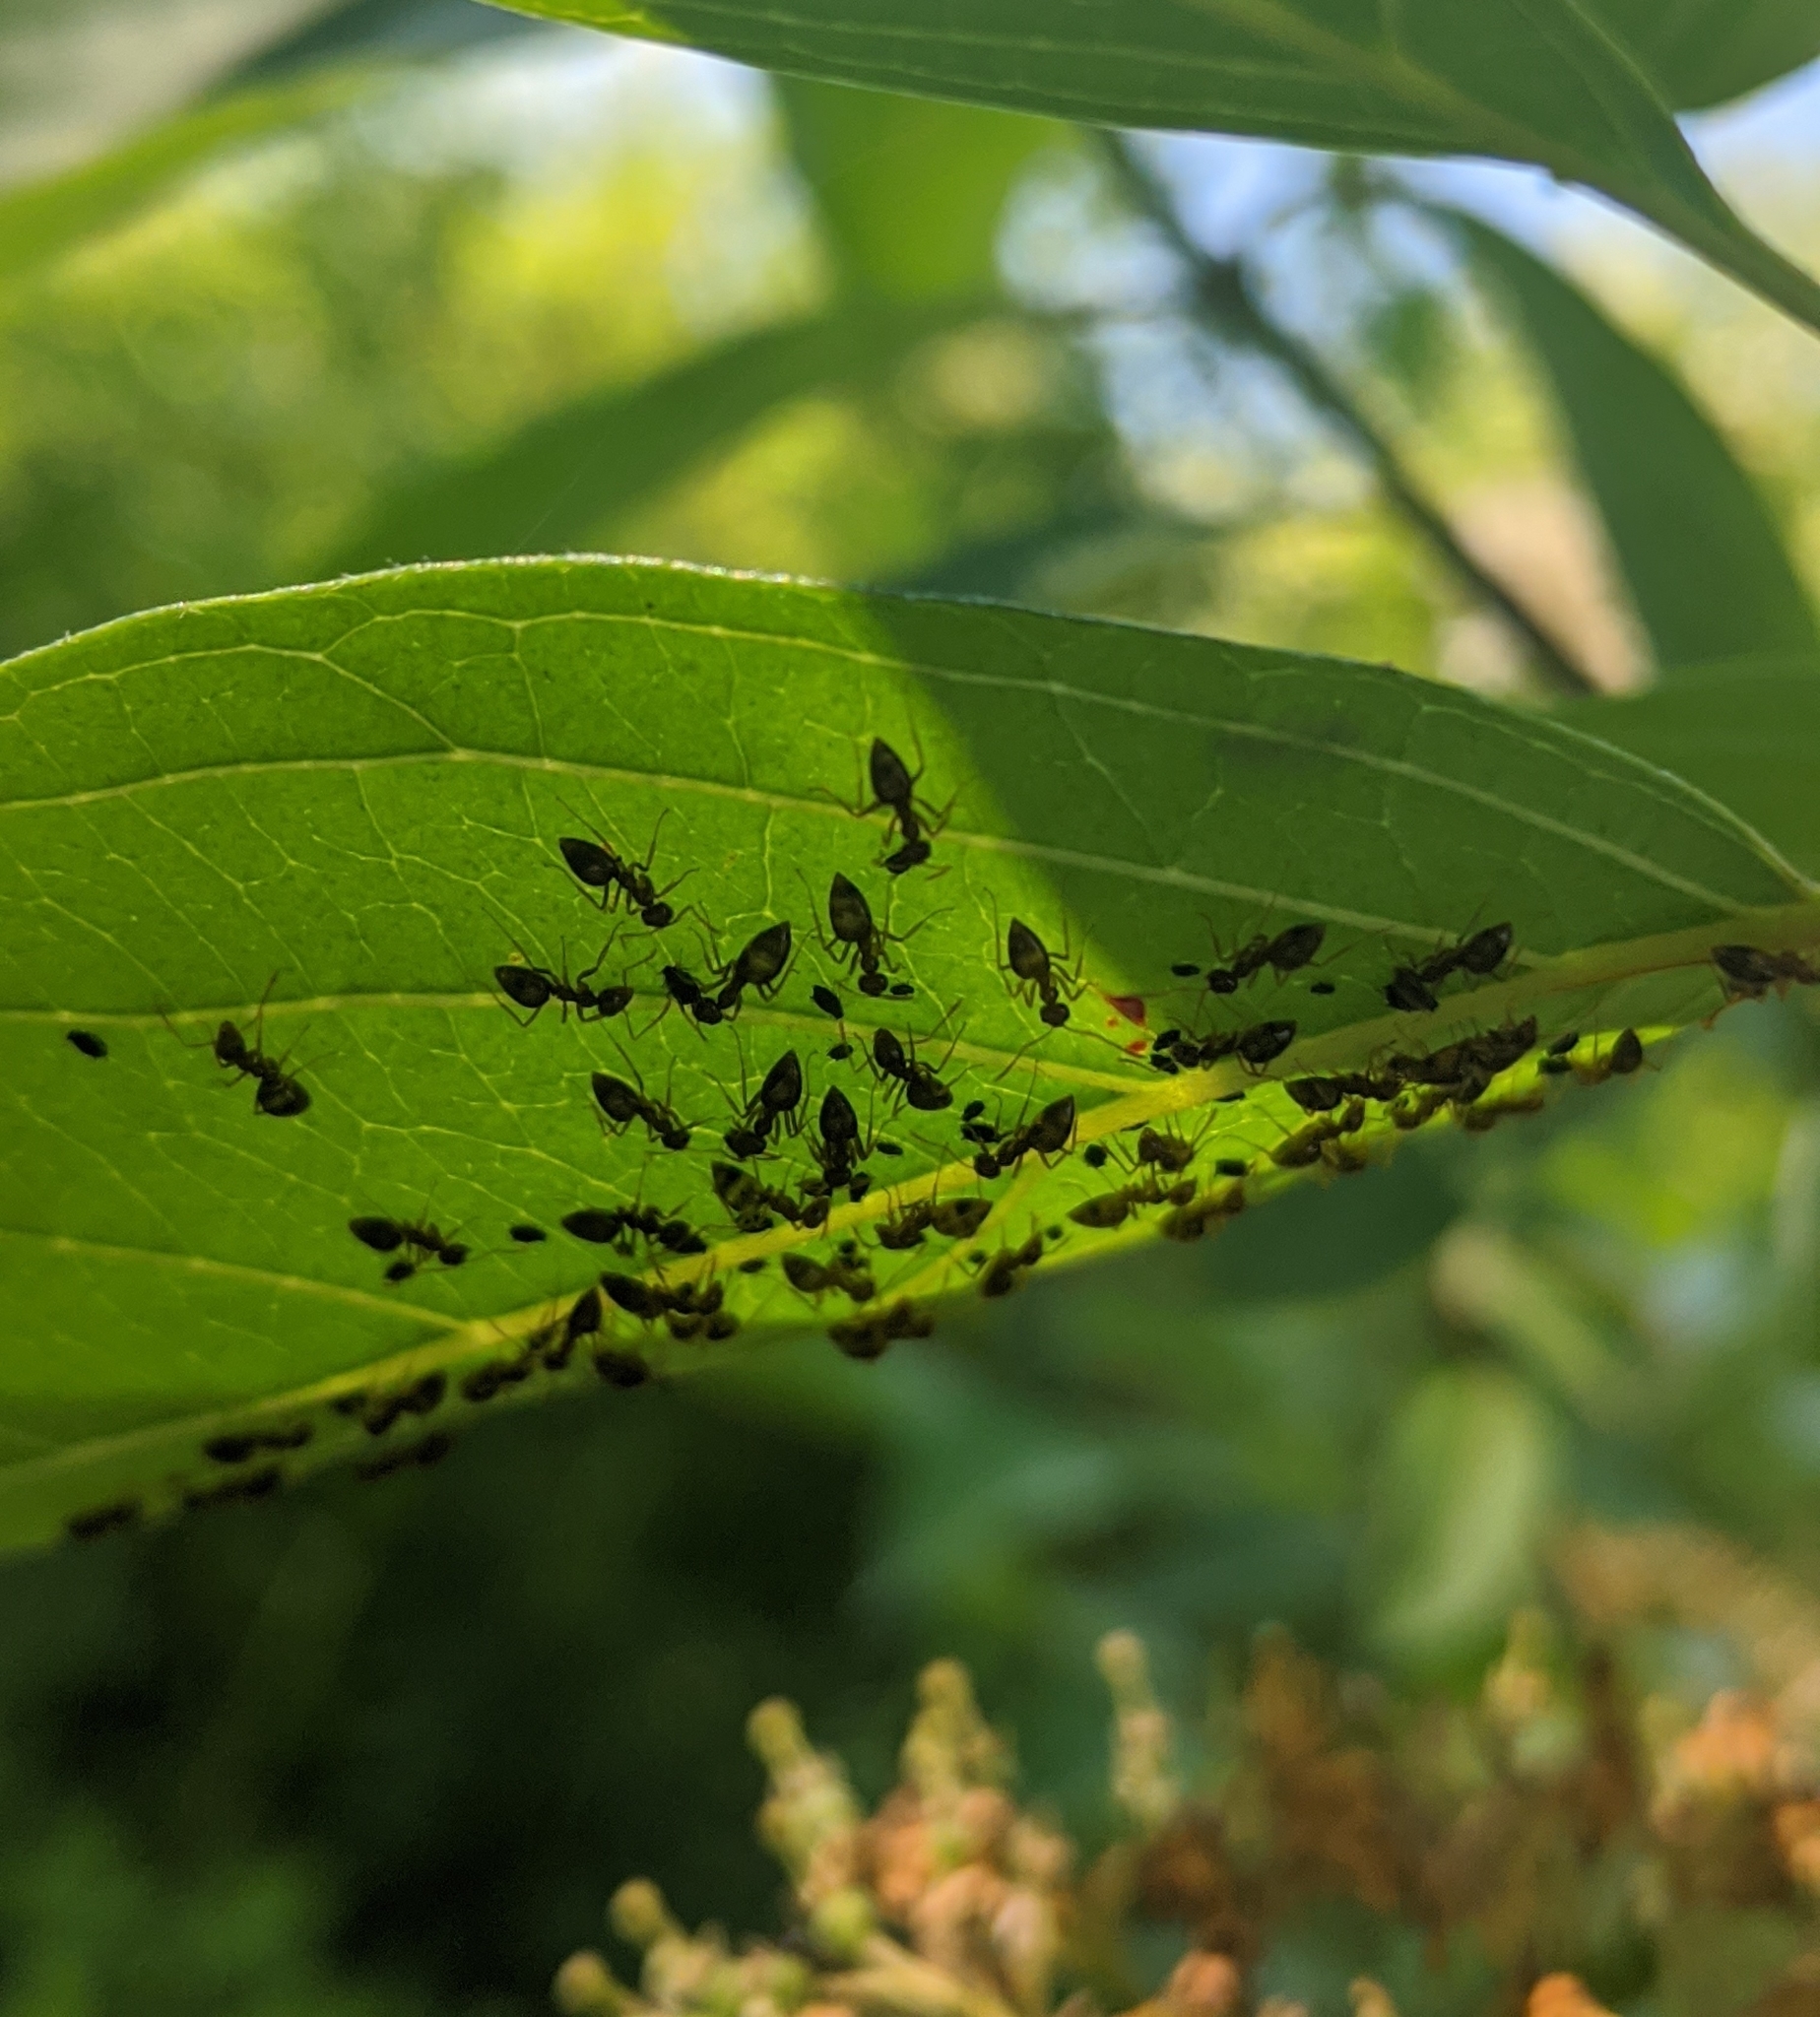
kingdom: Animalia
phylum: Arthropoda
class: Insecta
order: Hymenoptera
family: Formicidae
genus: Prenolepis
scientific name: Prenolepis imparis
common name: Small honey ant
